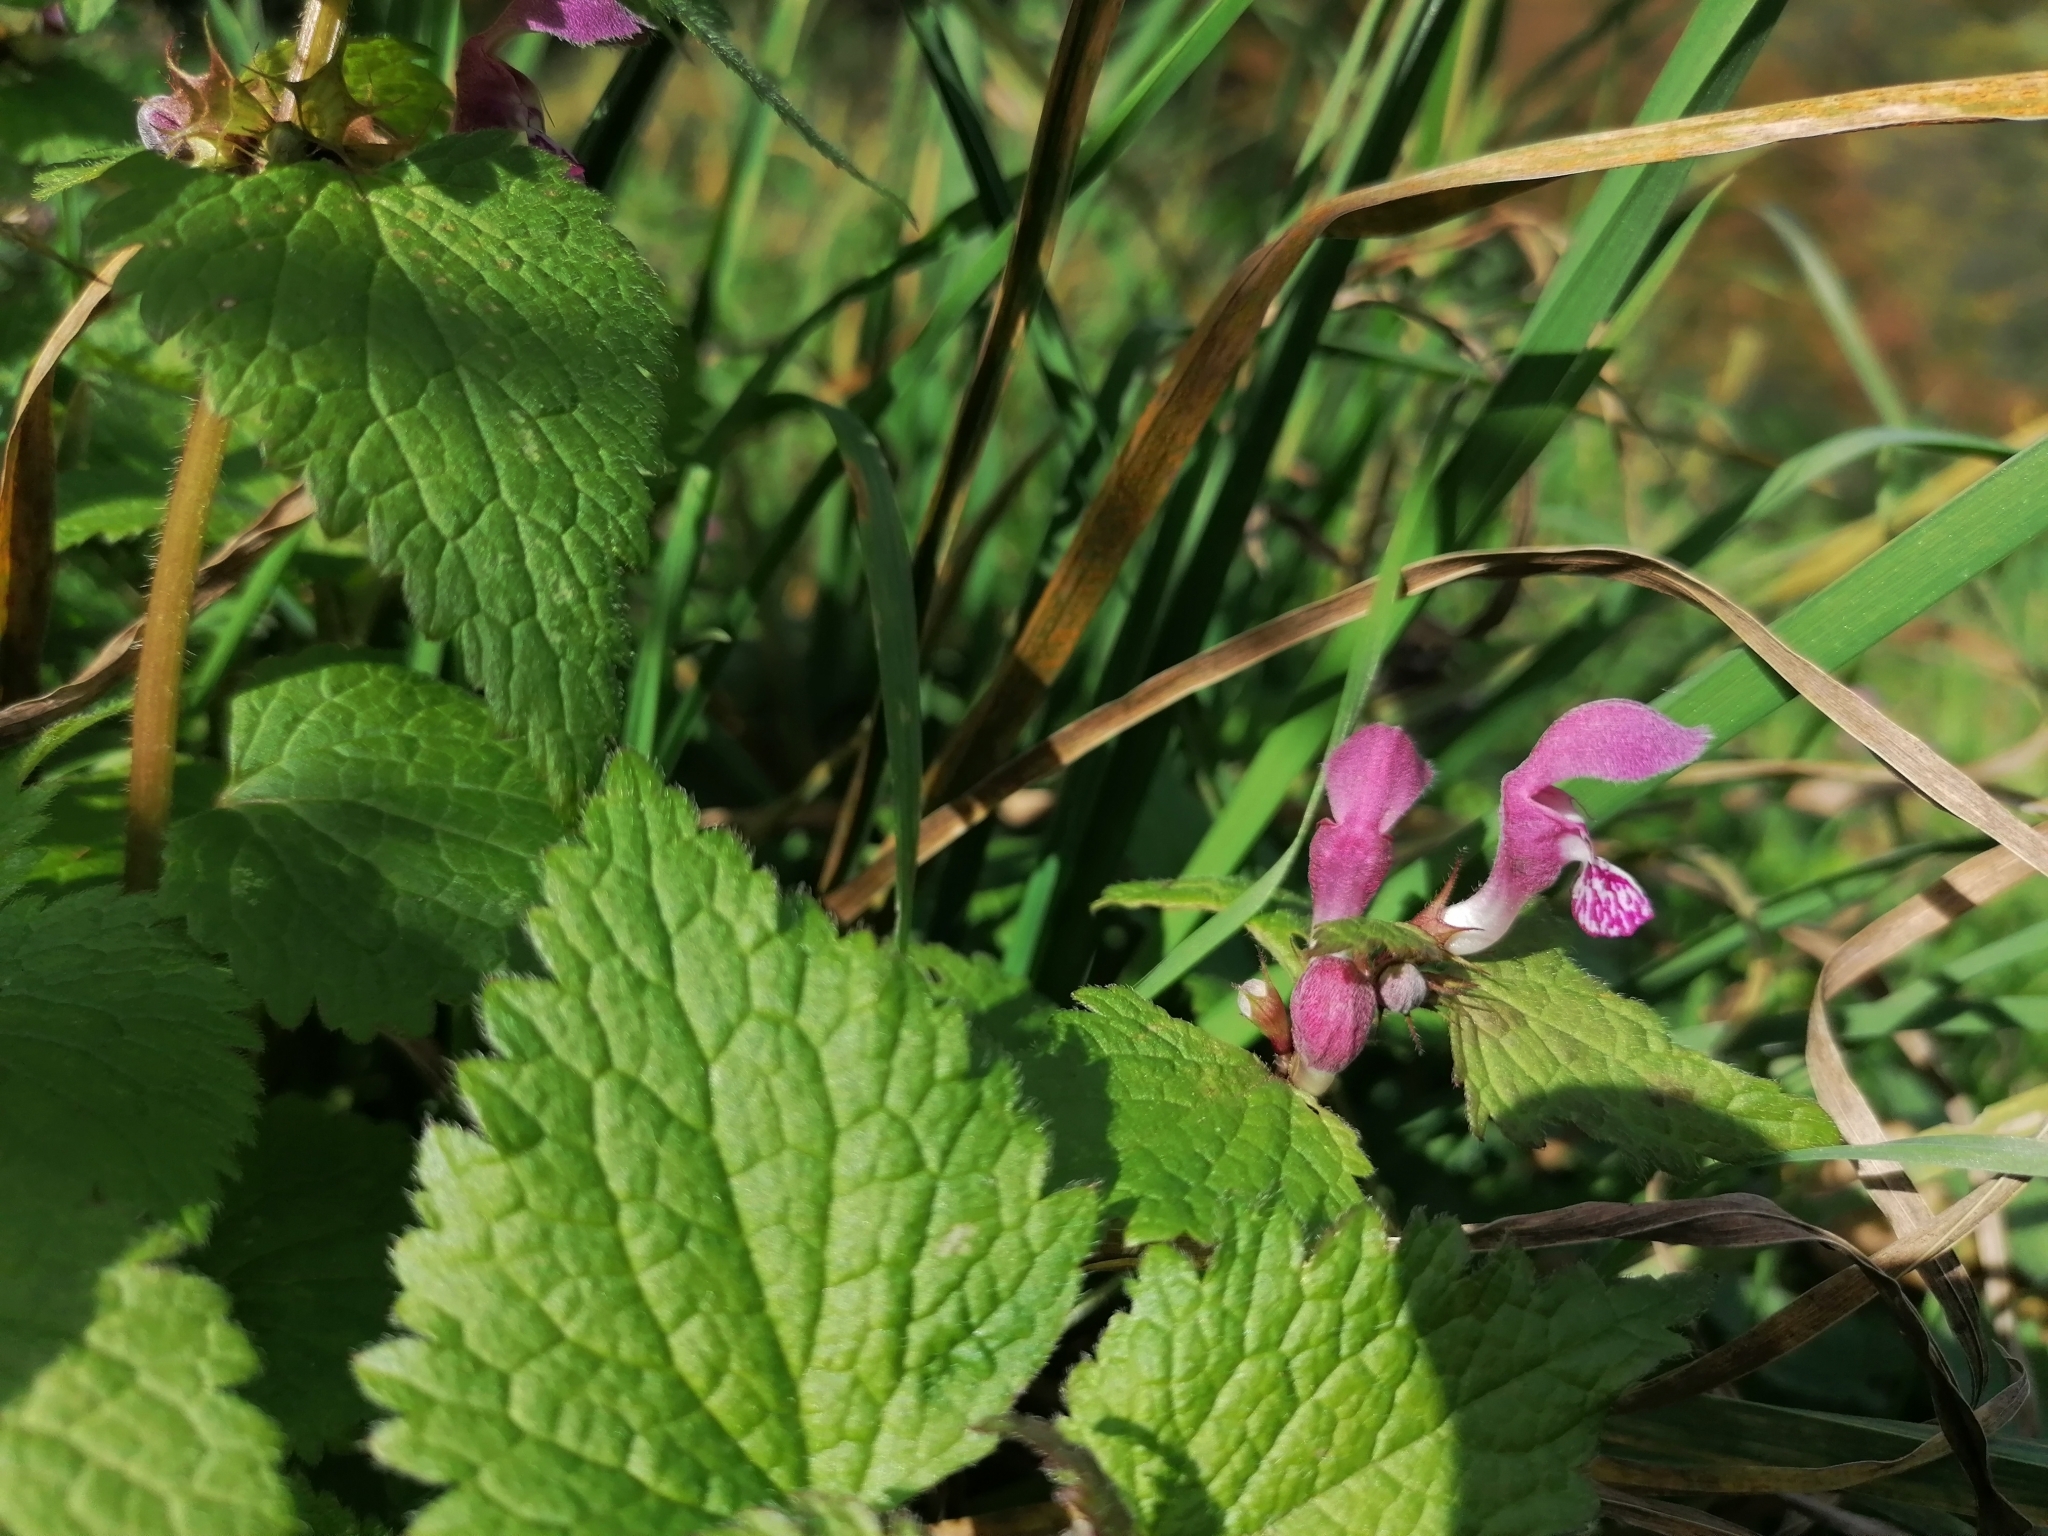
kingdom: Plantae
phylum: Tracheophyta
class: Magnoliopsida
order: Lamiales
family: Lamiaceae
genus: Lamium
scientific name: Lamium maculatum
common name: Spotted dead-nettle
